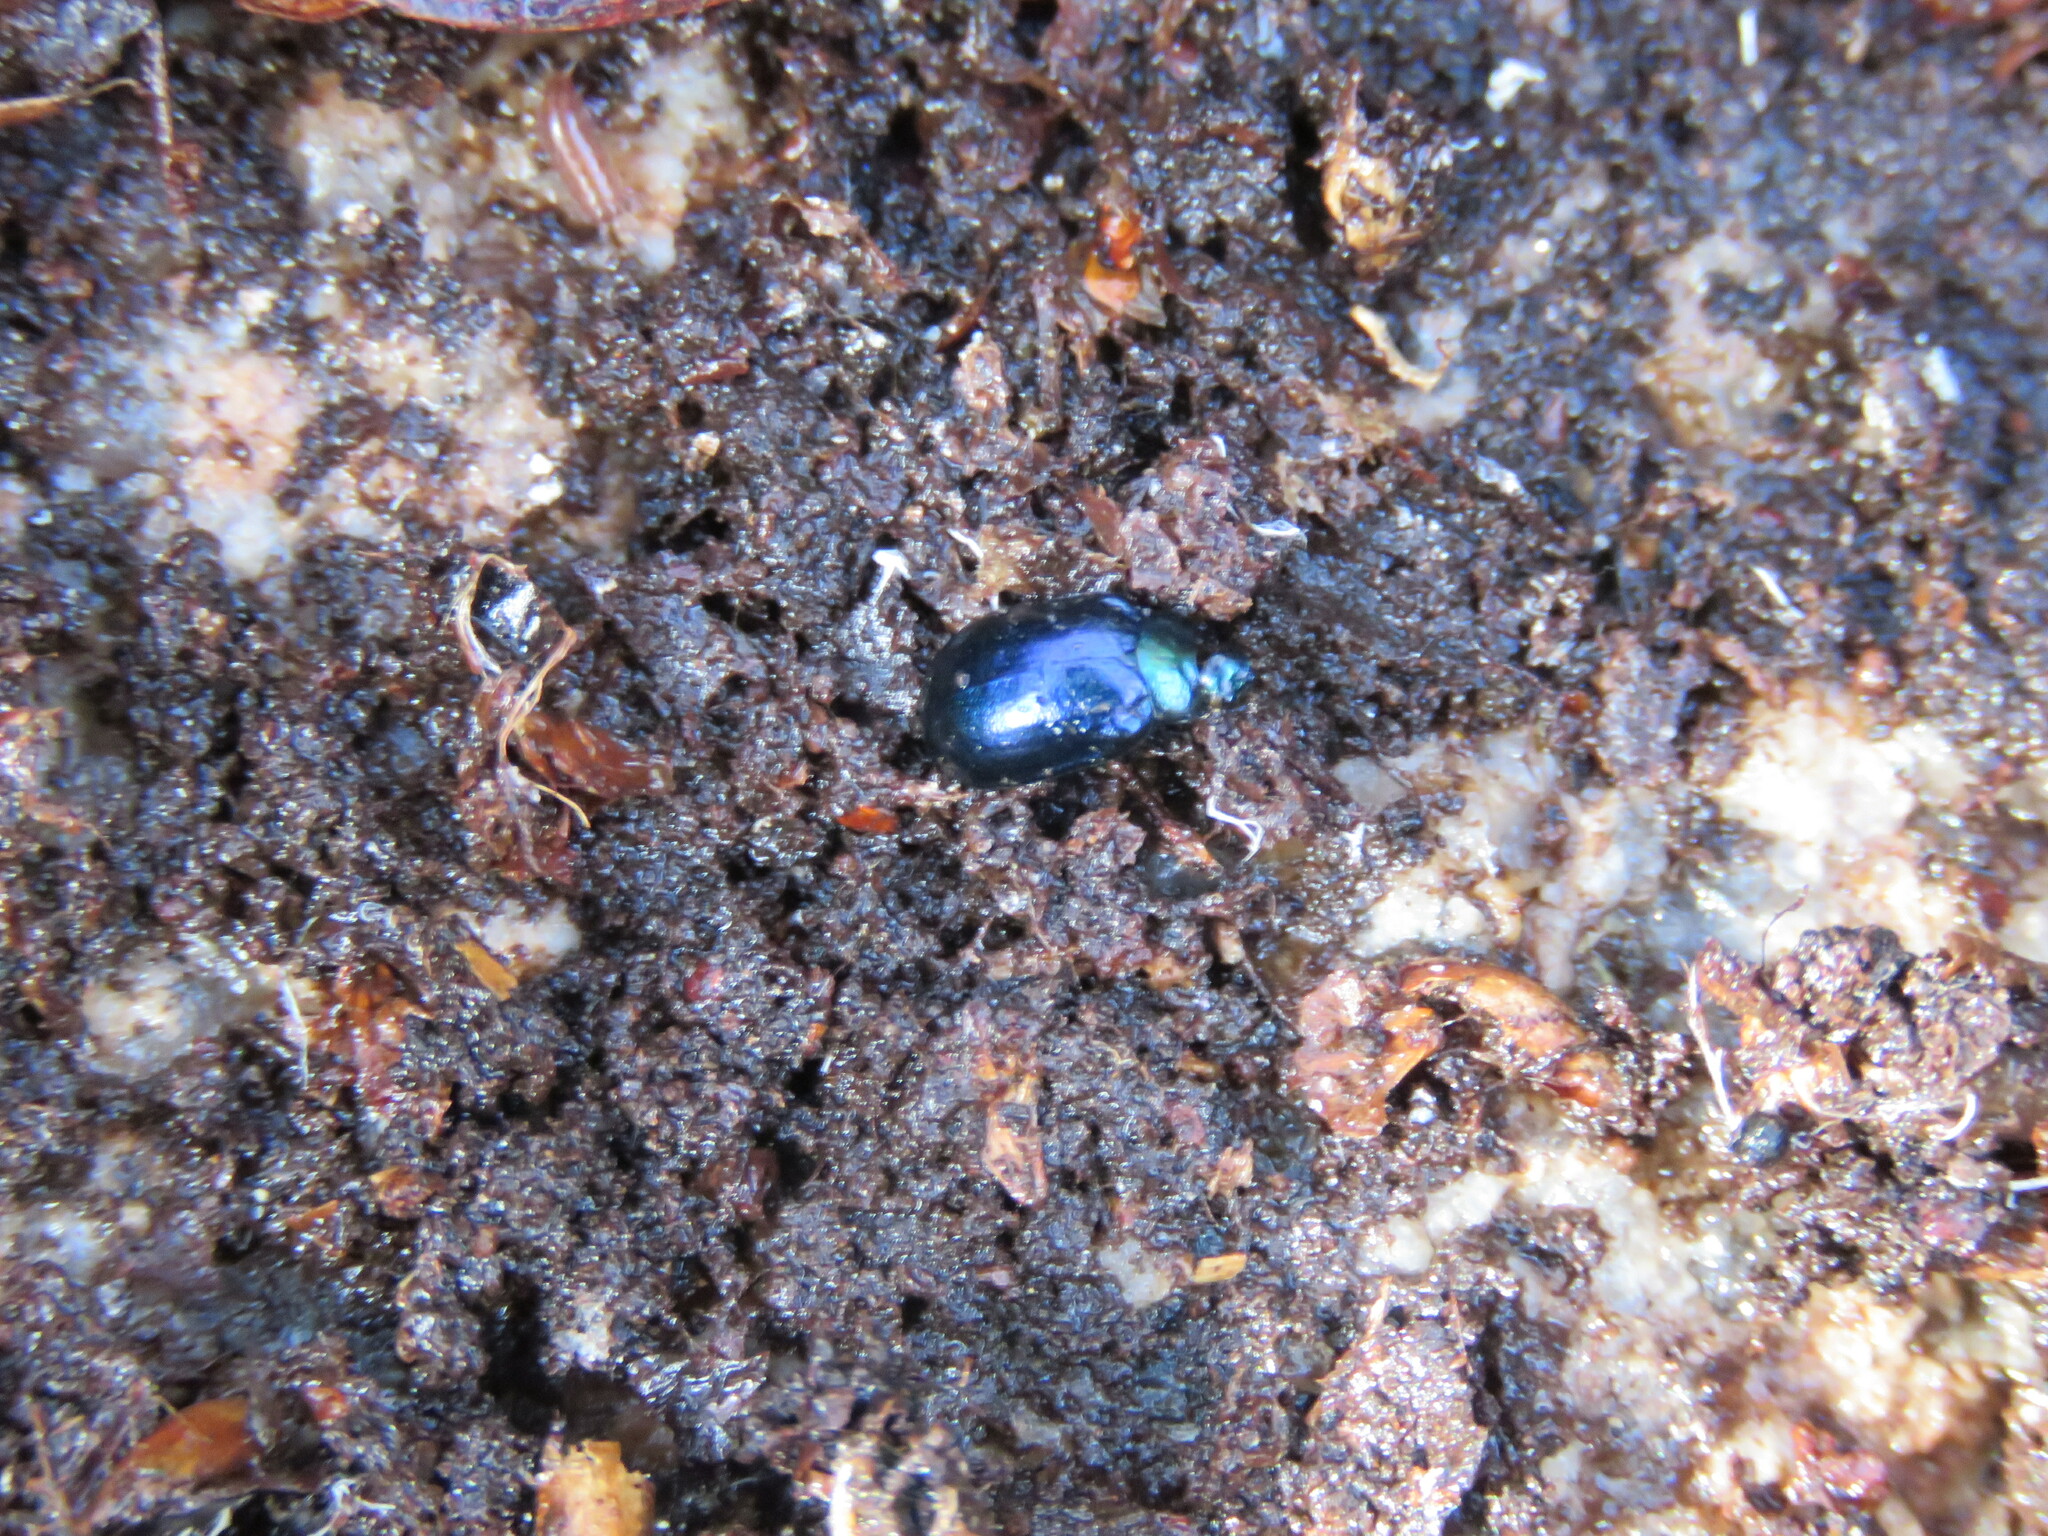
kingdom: Animalia
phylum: Arthropoda
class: Insecta
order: Coleoptera
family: Chrysomelidae
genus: Plagiosterna
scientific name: Plagiosterna aenea
